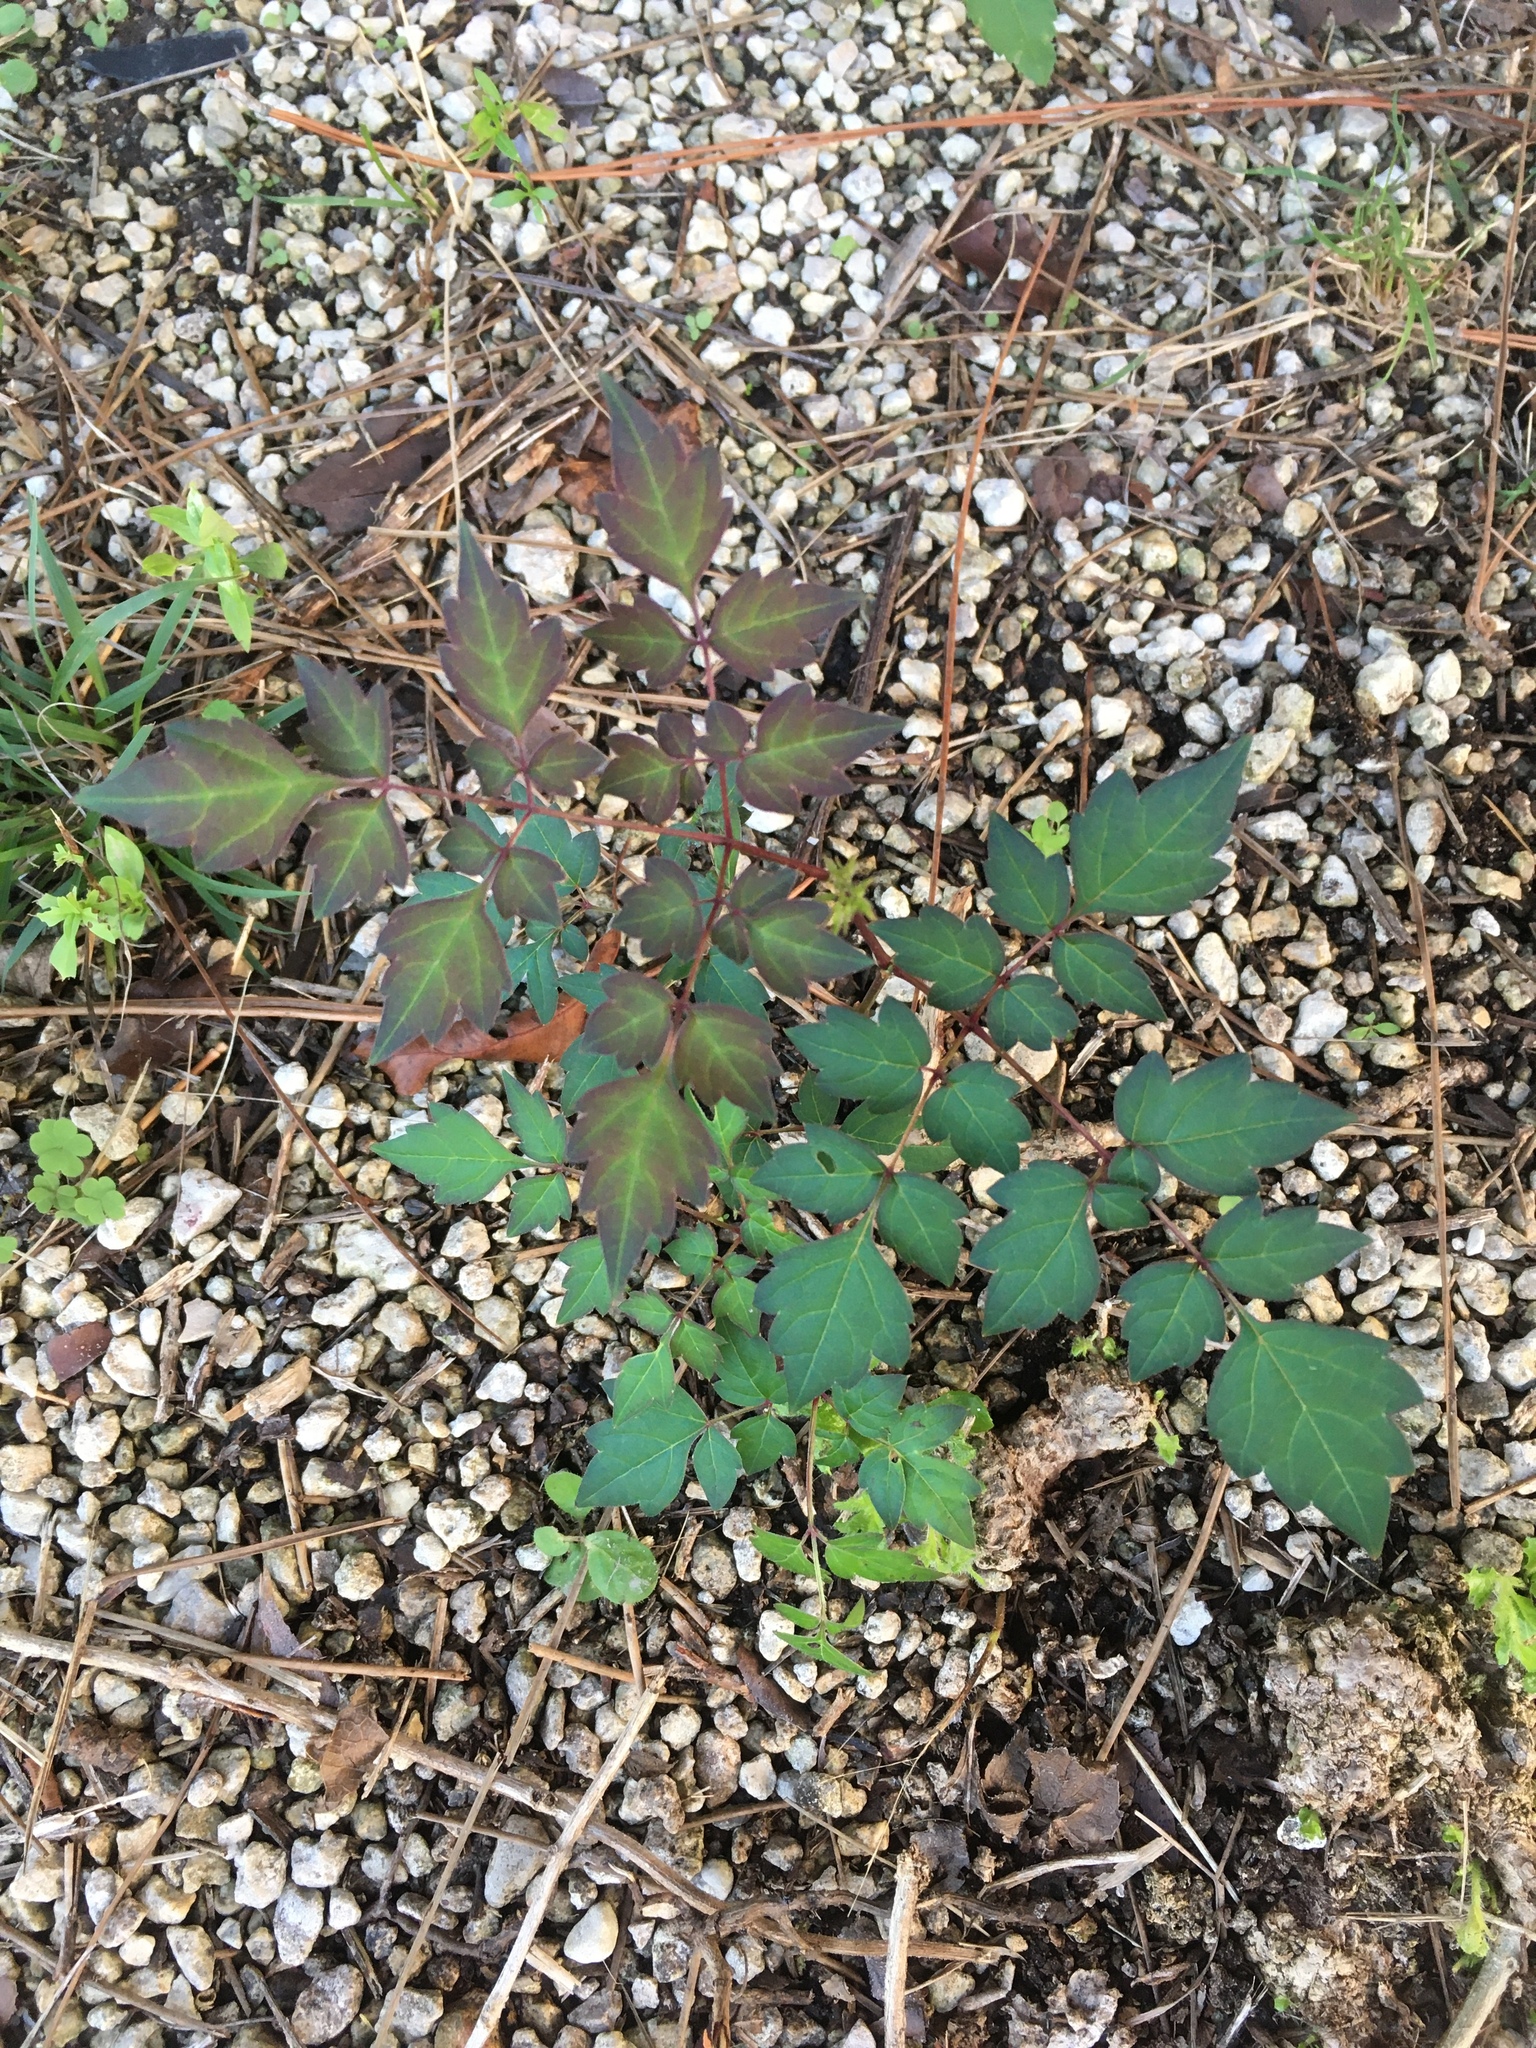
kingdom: Plantae
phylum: Tracheophyta
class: Magnoliopsida
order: Vitales
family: Vitaceae
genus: Nekemias
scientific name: Nekemias arborea
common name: Peppervine
